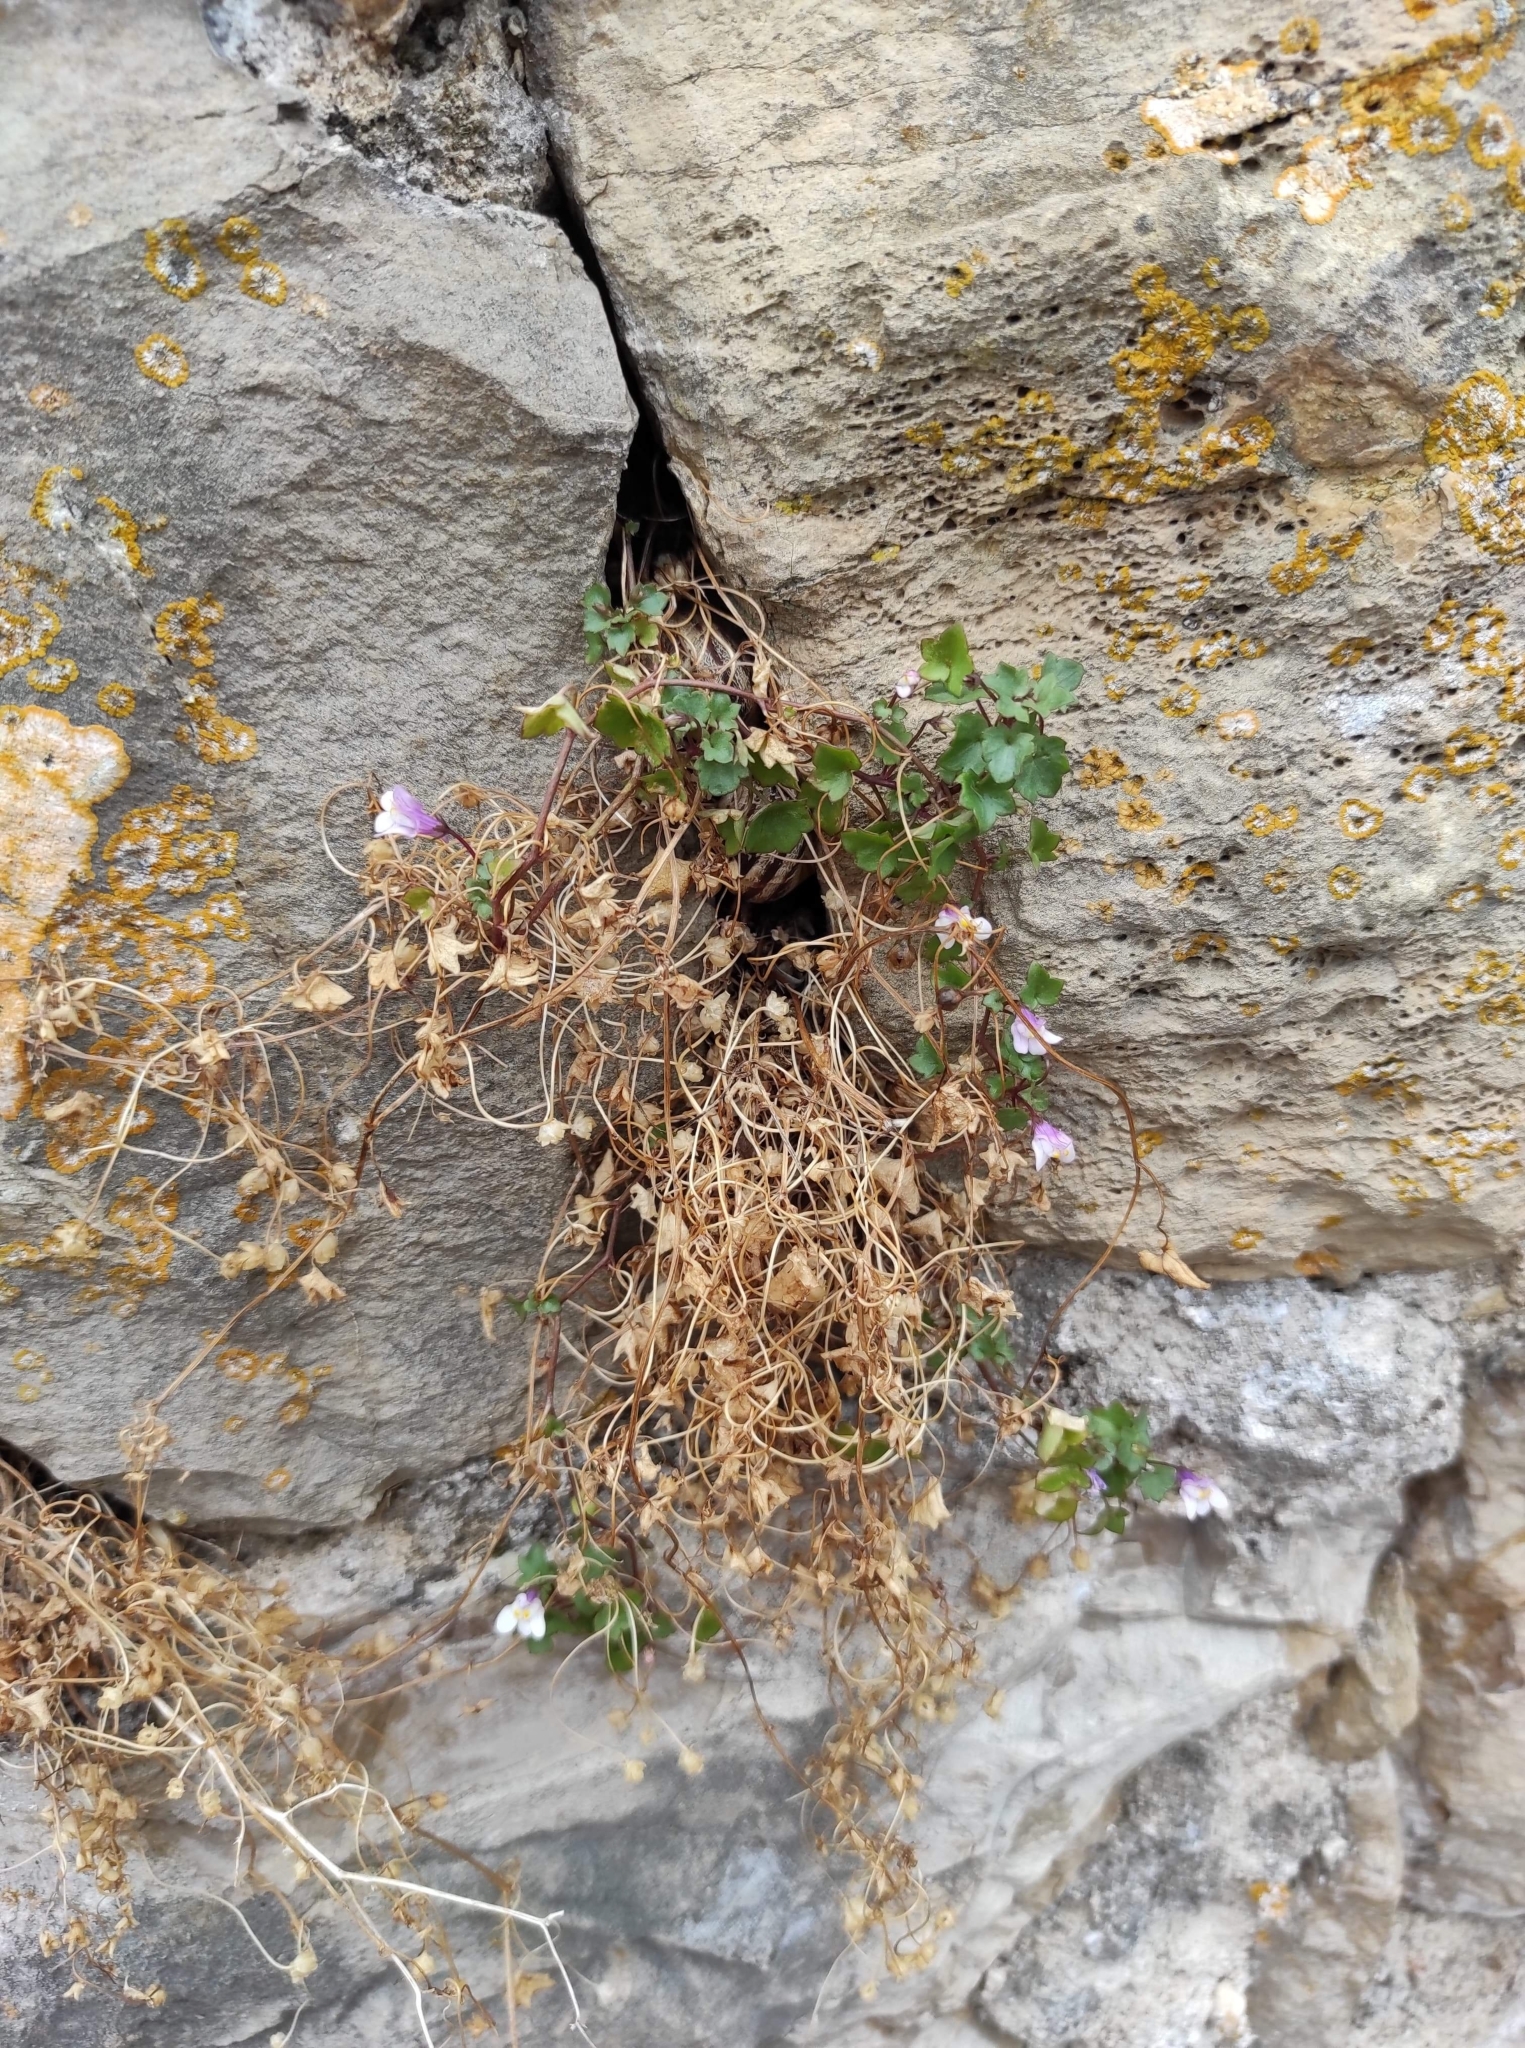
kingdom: Plantae
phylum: Tracheophyta
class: Magnoliopsida
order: Lamiales
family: Plantaginaceae
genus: Cymbalaria
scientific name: Cymbalaria muralis
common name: Ivy-leaved toadflax
